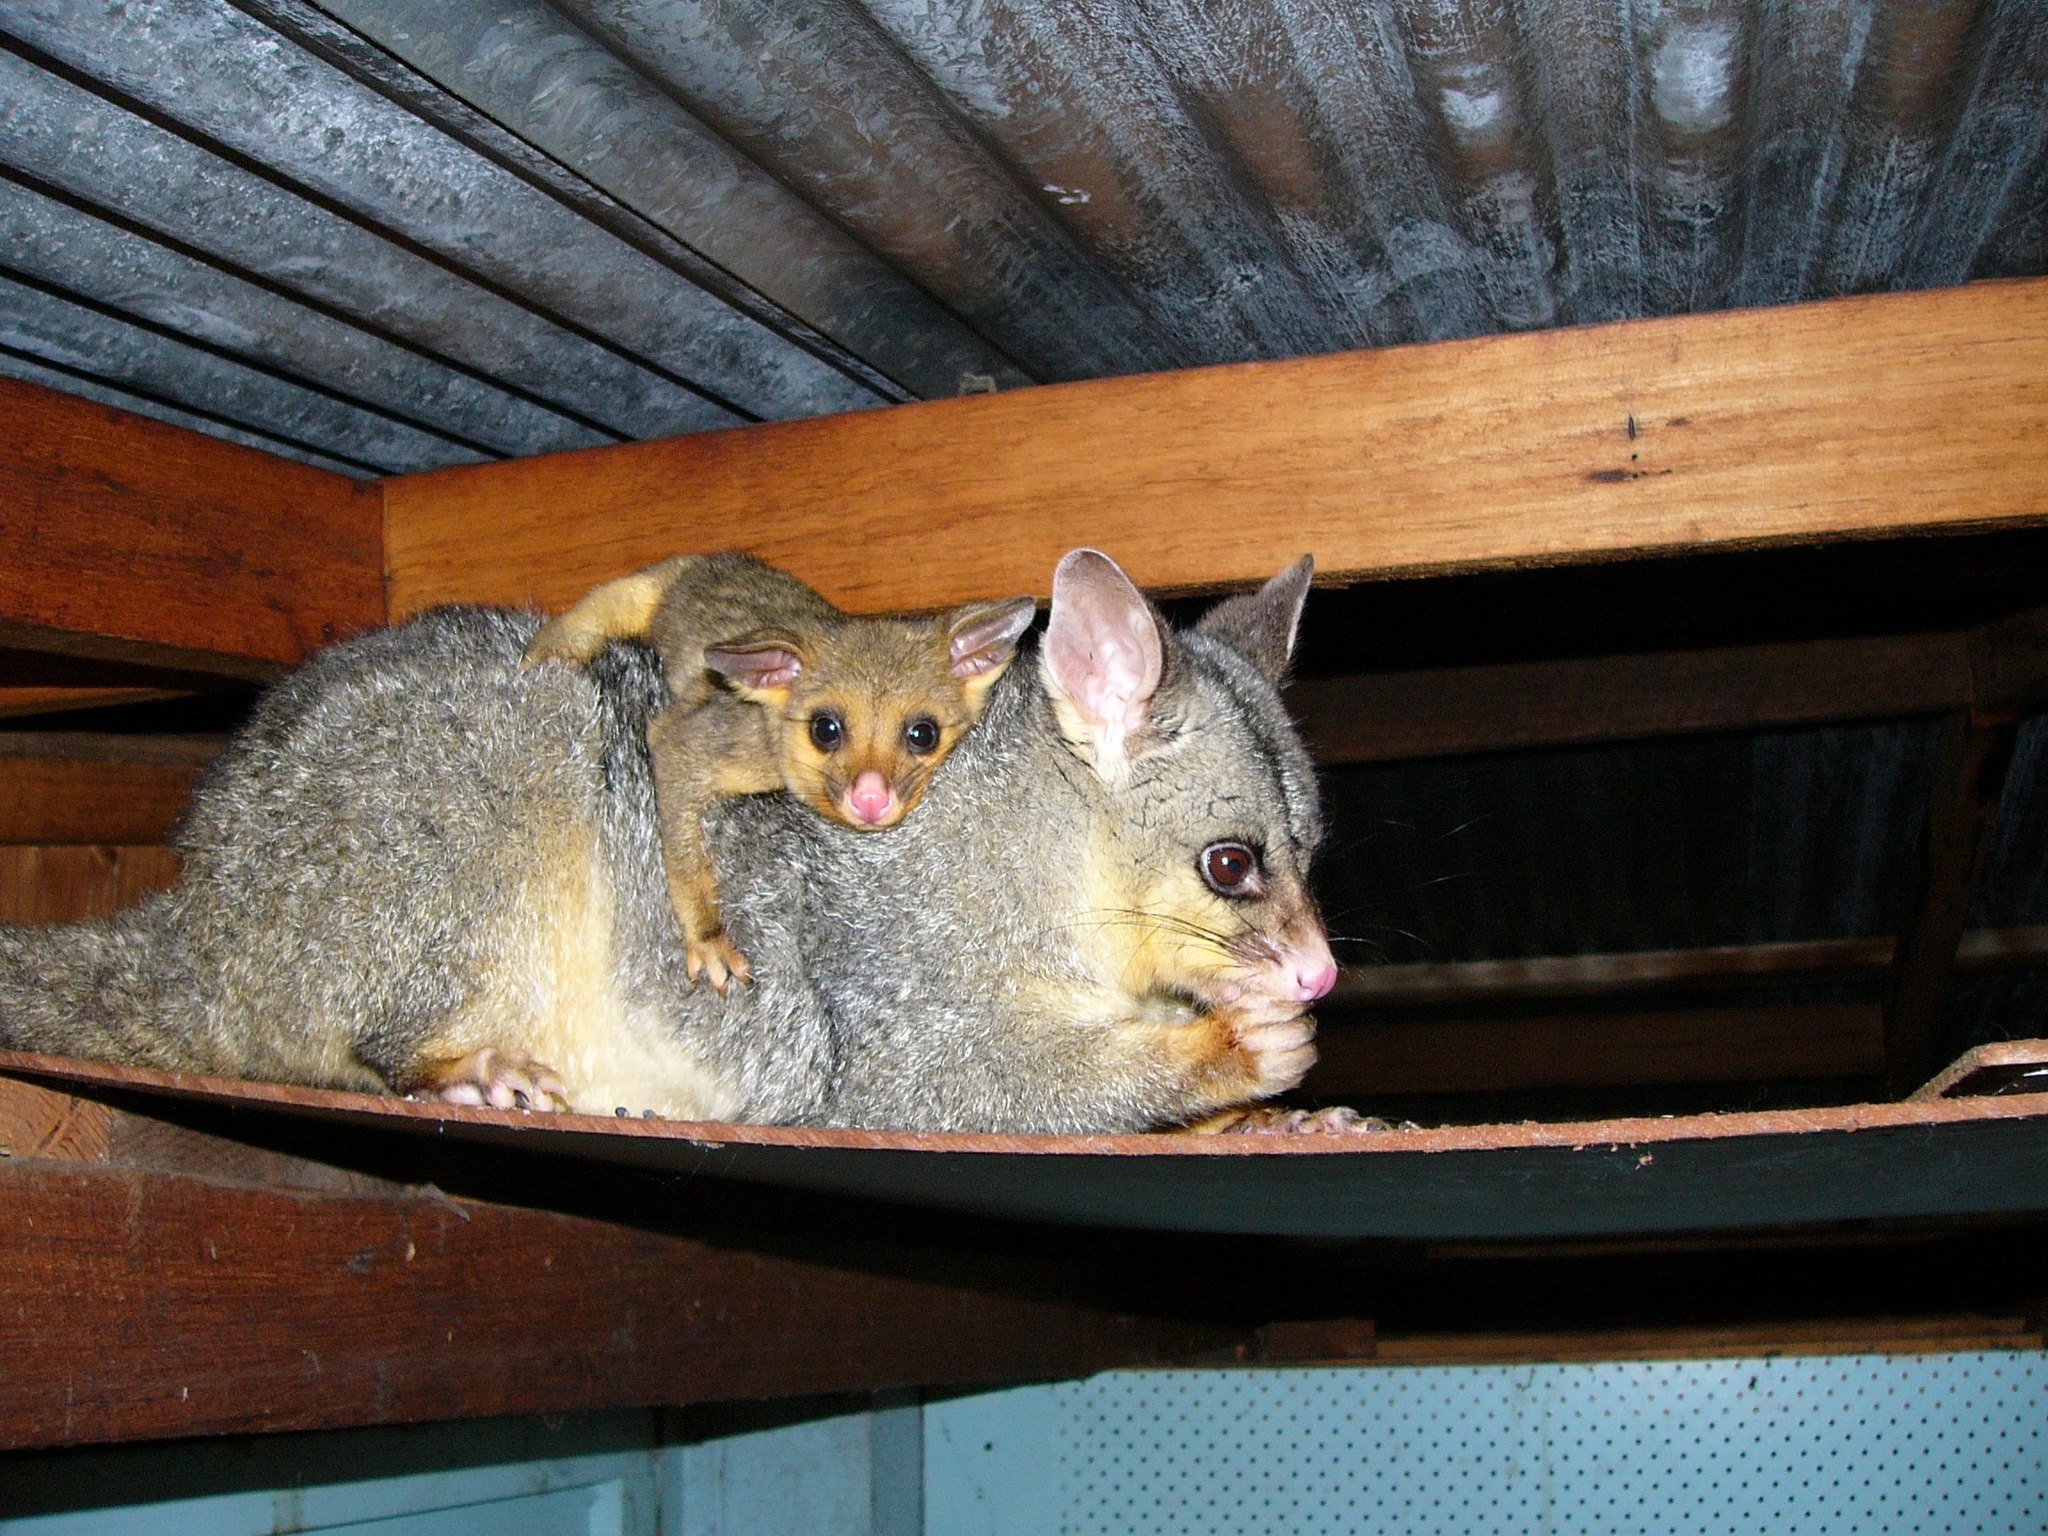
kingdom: Animalia
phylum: Chordata
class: Mammalia
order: Diprotodontia
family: Phalangeridae
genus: Trichosurus
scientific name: Trichosurus vulpecula
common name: Common brushtail
